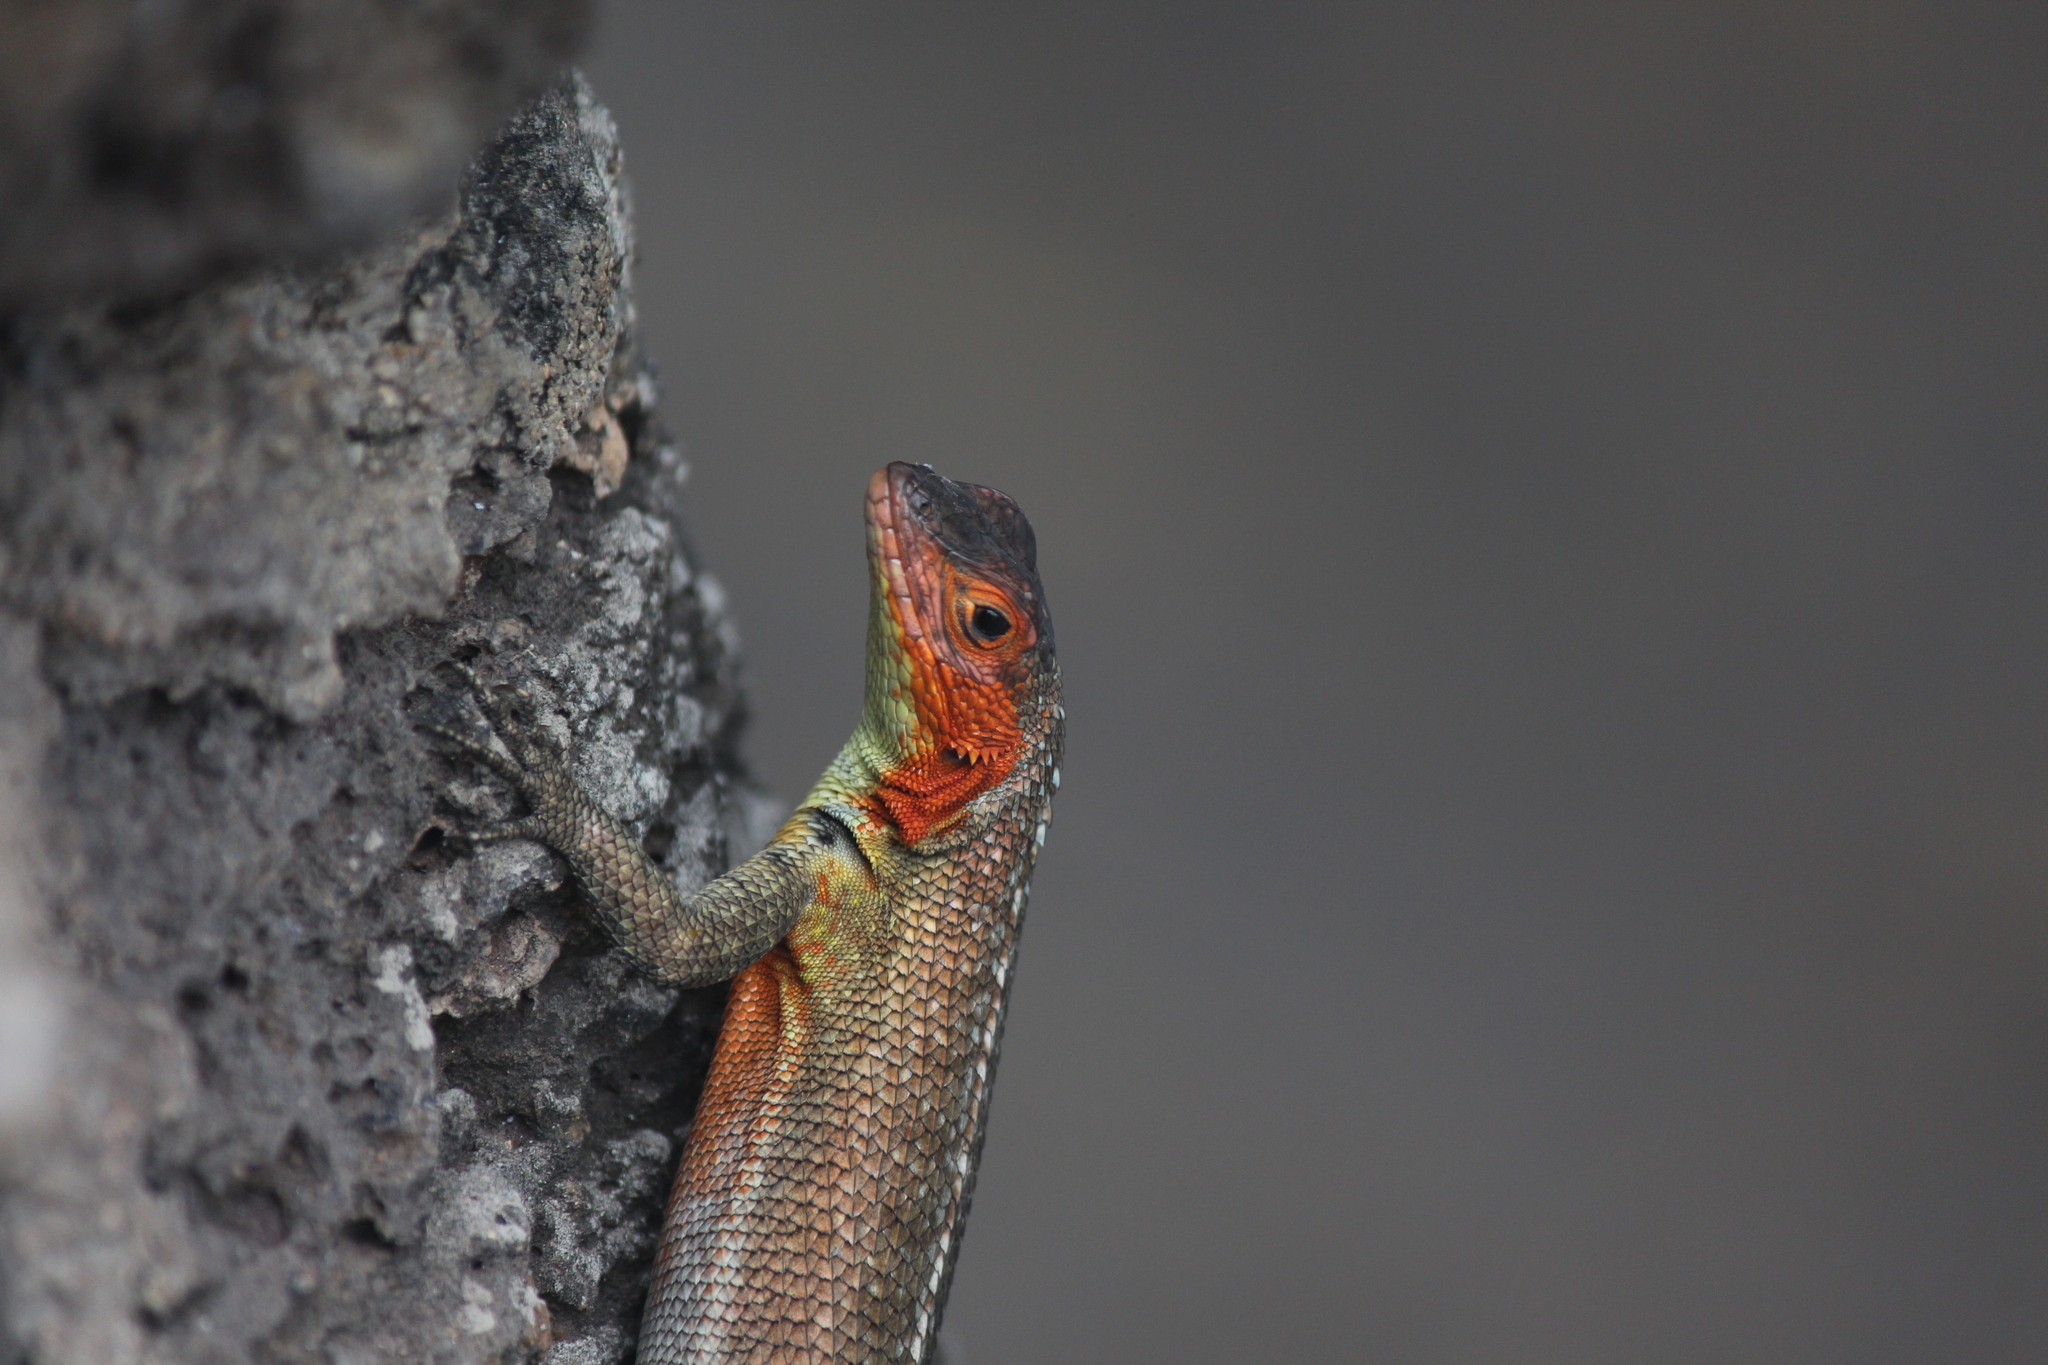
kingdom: Animalia
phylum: Chordata
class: Squamata
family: Tropiduridae
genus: Microlophus
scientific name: Microlophus indefatigabilis
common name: Galapagos lava lizard
